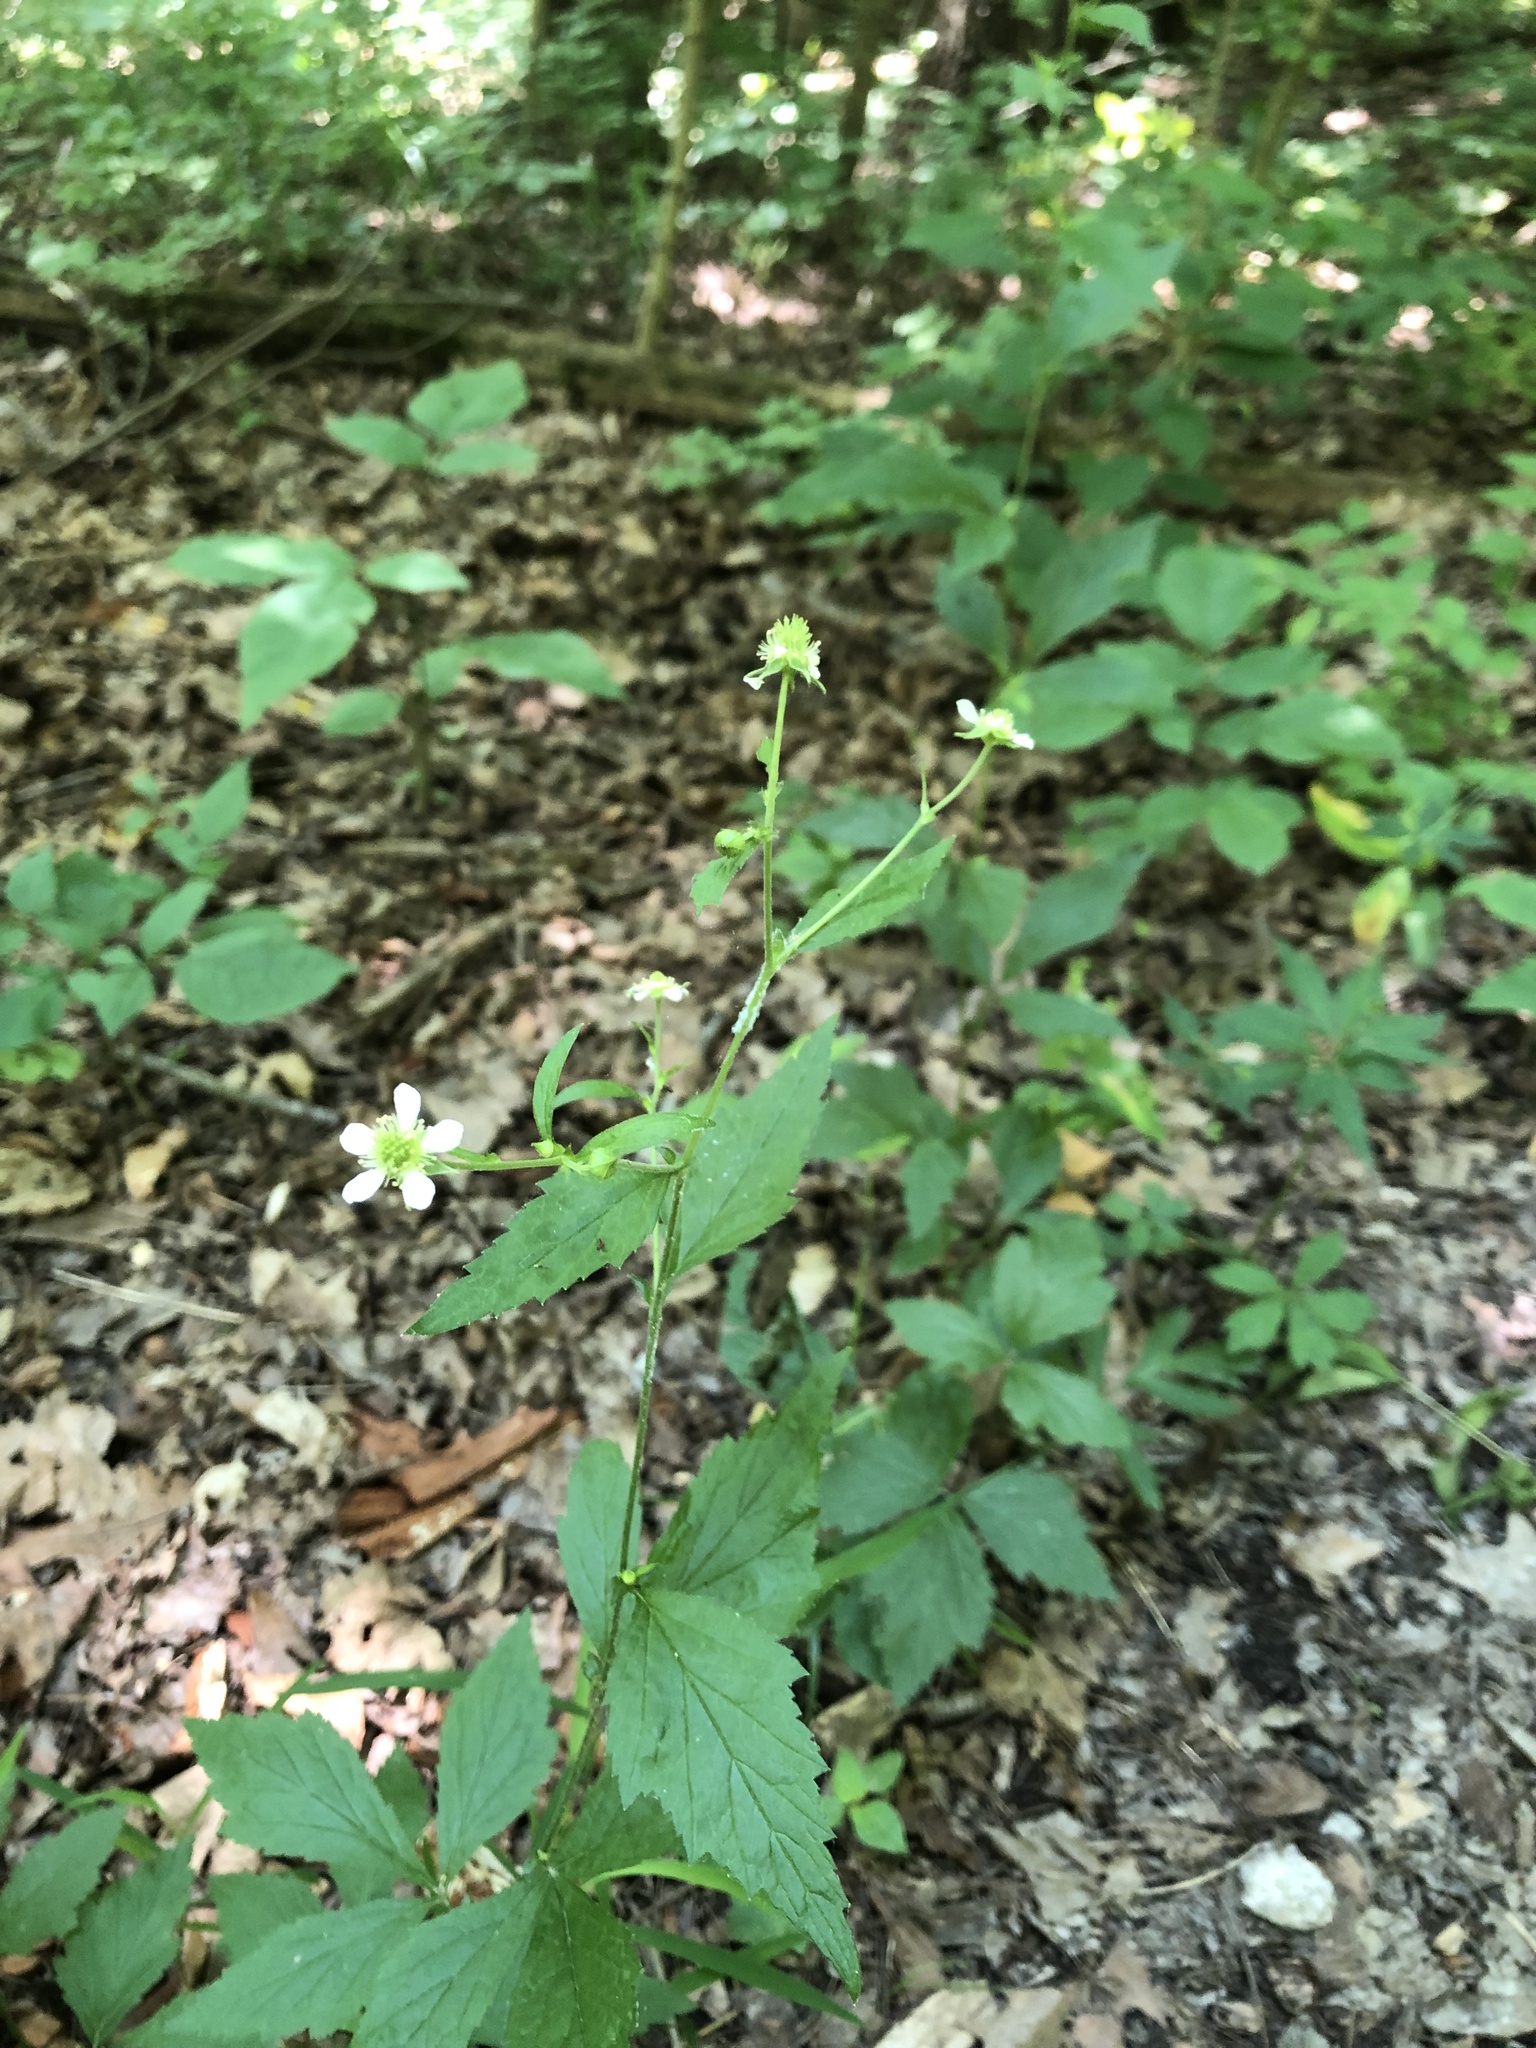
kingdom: Plantae
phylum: Tracheophyta
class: Magnoliopsida
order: Rosales
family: Rosaceae
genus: Geum
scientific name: Geum canadense
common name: White avens
